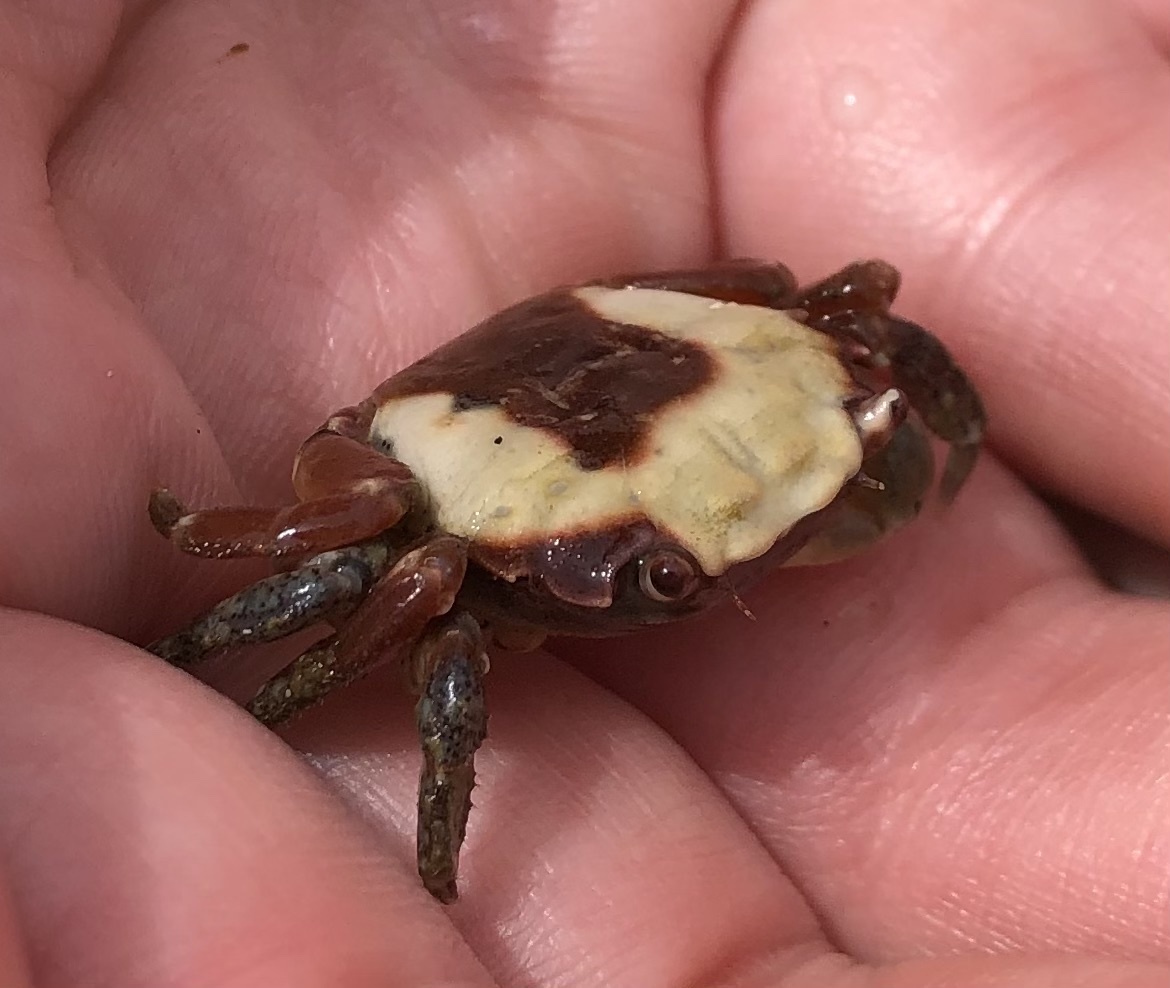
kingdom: Animalia
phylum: Arthropoda
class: Malacostraca
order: Decapoda
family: Varunidae
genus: Hemigrapsus
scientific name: Hemigrapsus oregonensis
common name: Yellow shore crab
